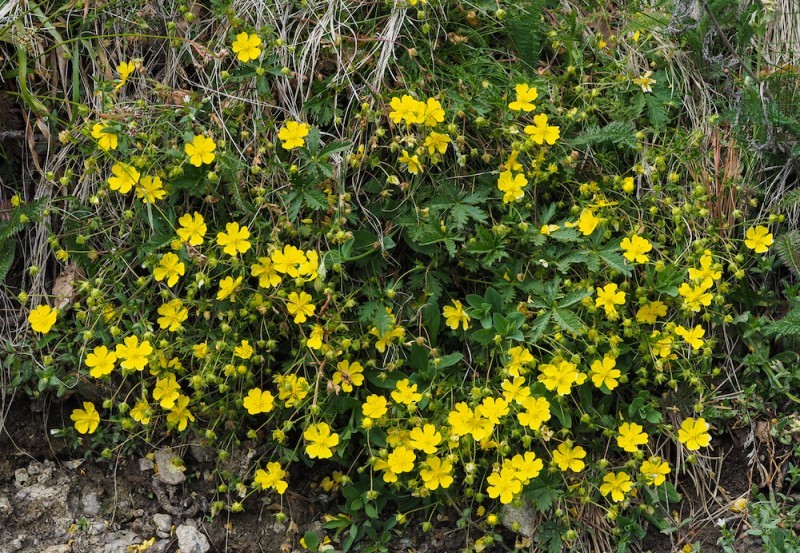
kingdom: Plantae
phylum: Tracheophyta
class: Magnoliopsida
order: Rosales
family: Rosaceae
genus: Potentilla
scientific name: Potentilla crantzii
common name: Alpine cinquefoil
